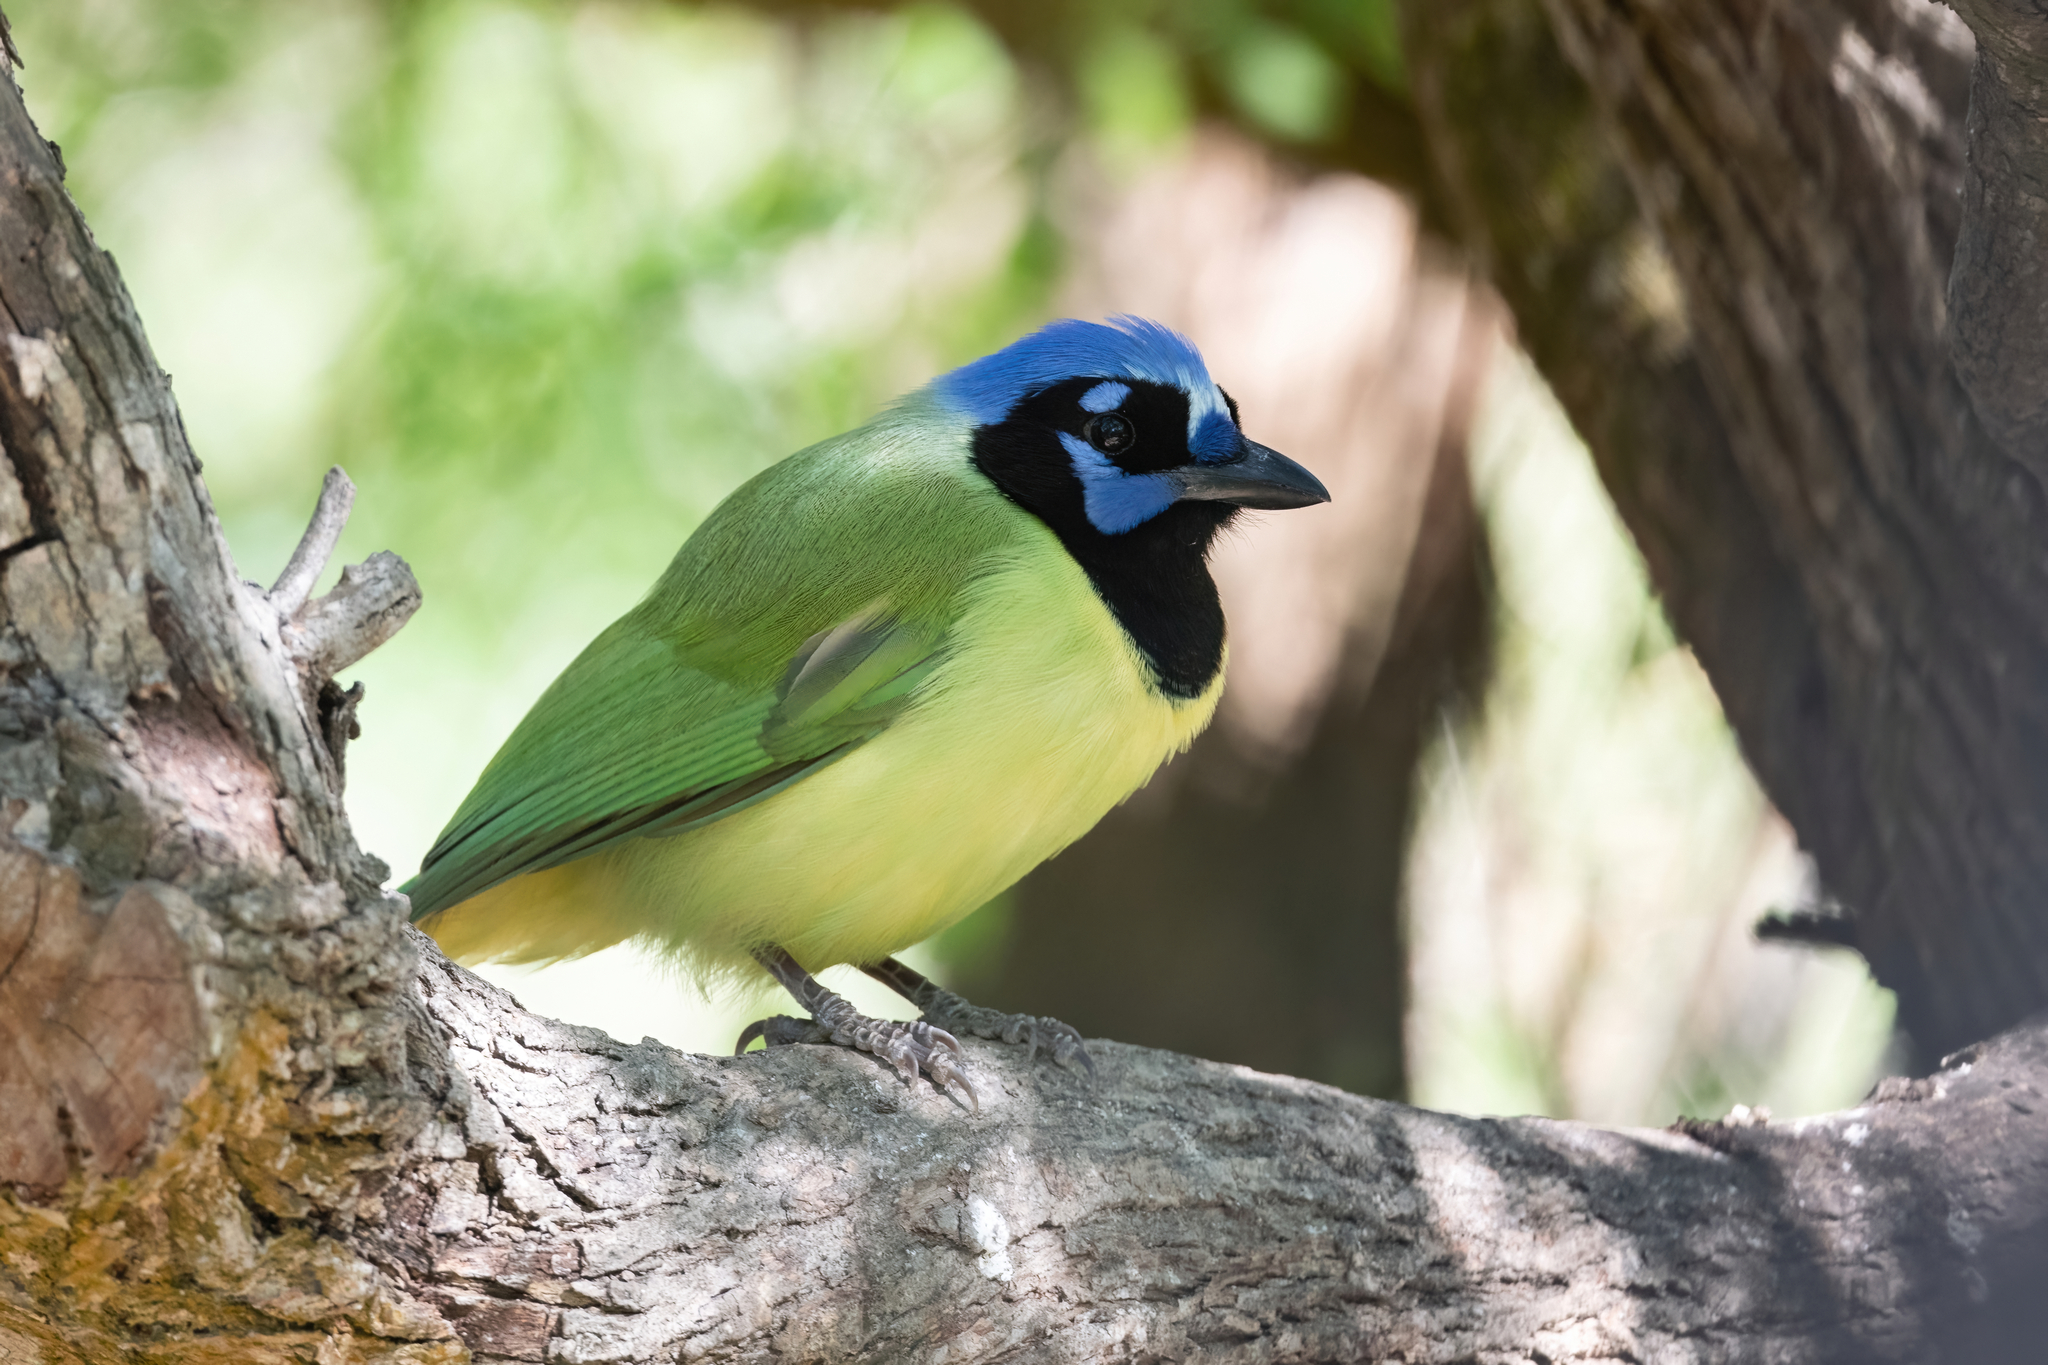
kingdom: Animalia
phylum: Chordata
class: Aves
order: Passeriformes
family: Corvidae
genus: Cyanocorax
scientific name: Cyanocorax yncas
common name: Green jay
